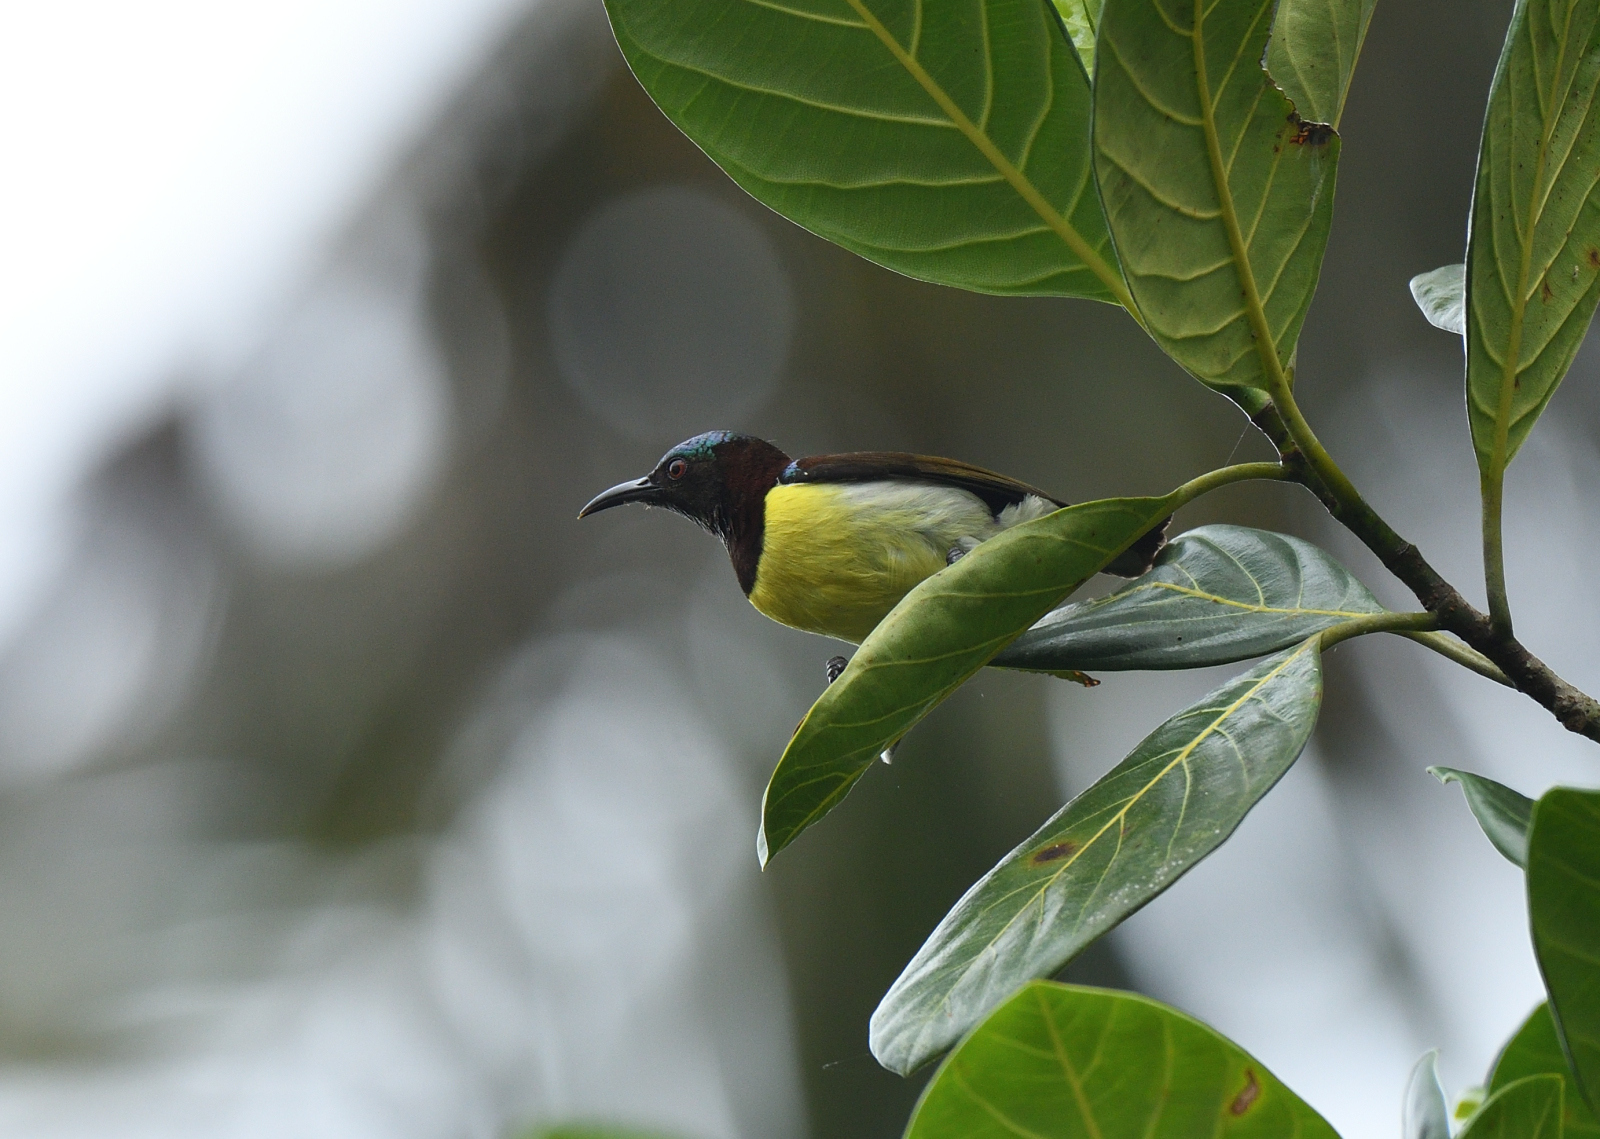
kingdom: Animalia
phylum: Chordata
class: Aves
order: Passeriformes
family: Nectariniidae
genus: Leptocoma
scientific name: Leptocoma zeylonica
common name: Purple-rumped sunbird
